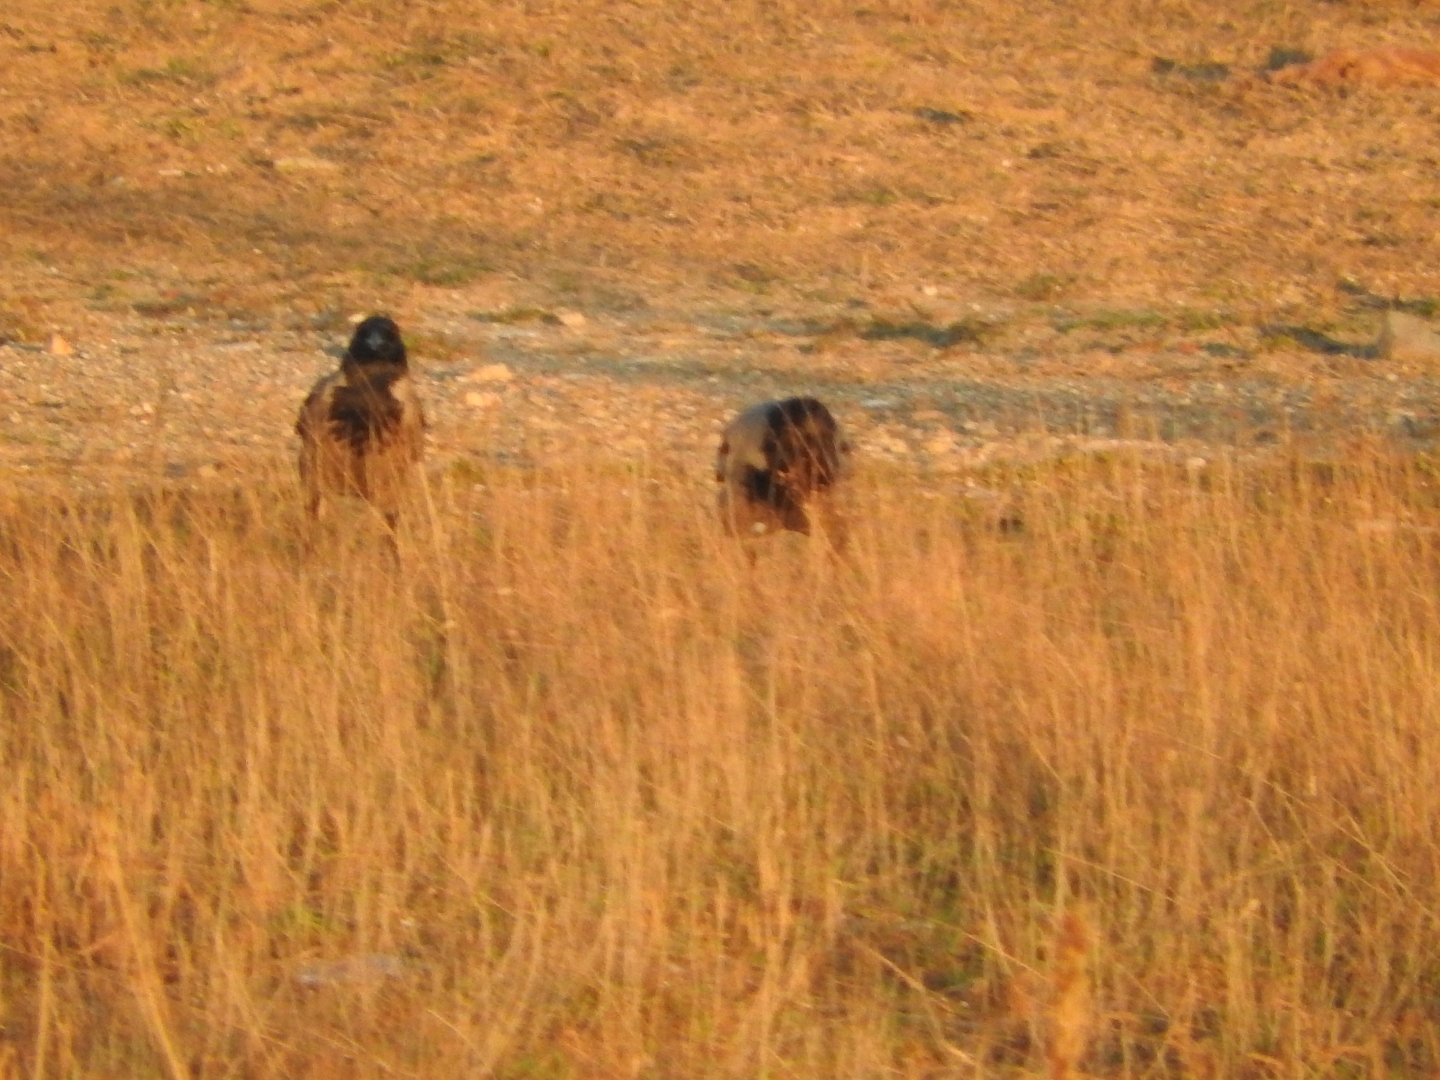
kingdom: Animalia
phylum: Chordata
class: Aves
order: Passeriformes
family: Corvidae
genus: Corvus
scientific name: Corvus cornix
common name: Hooded crow
